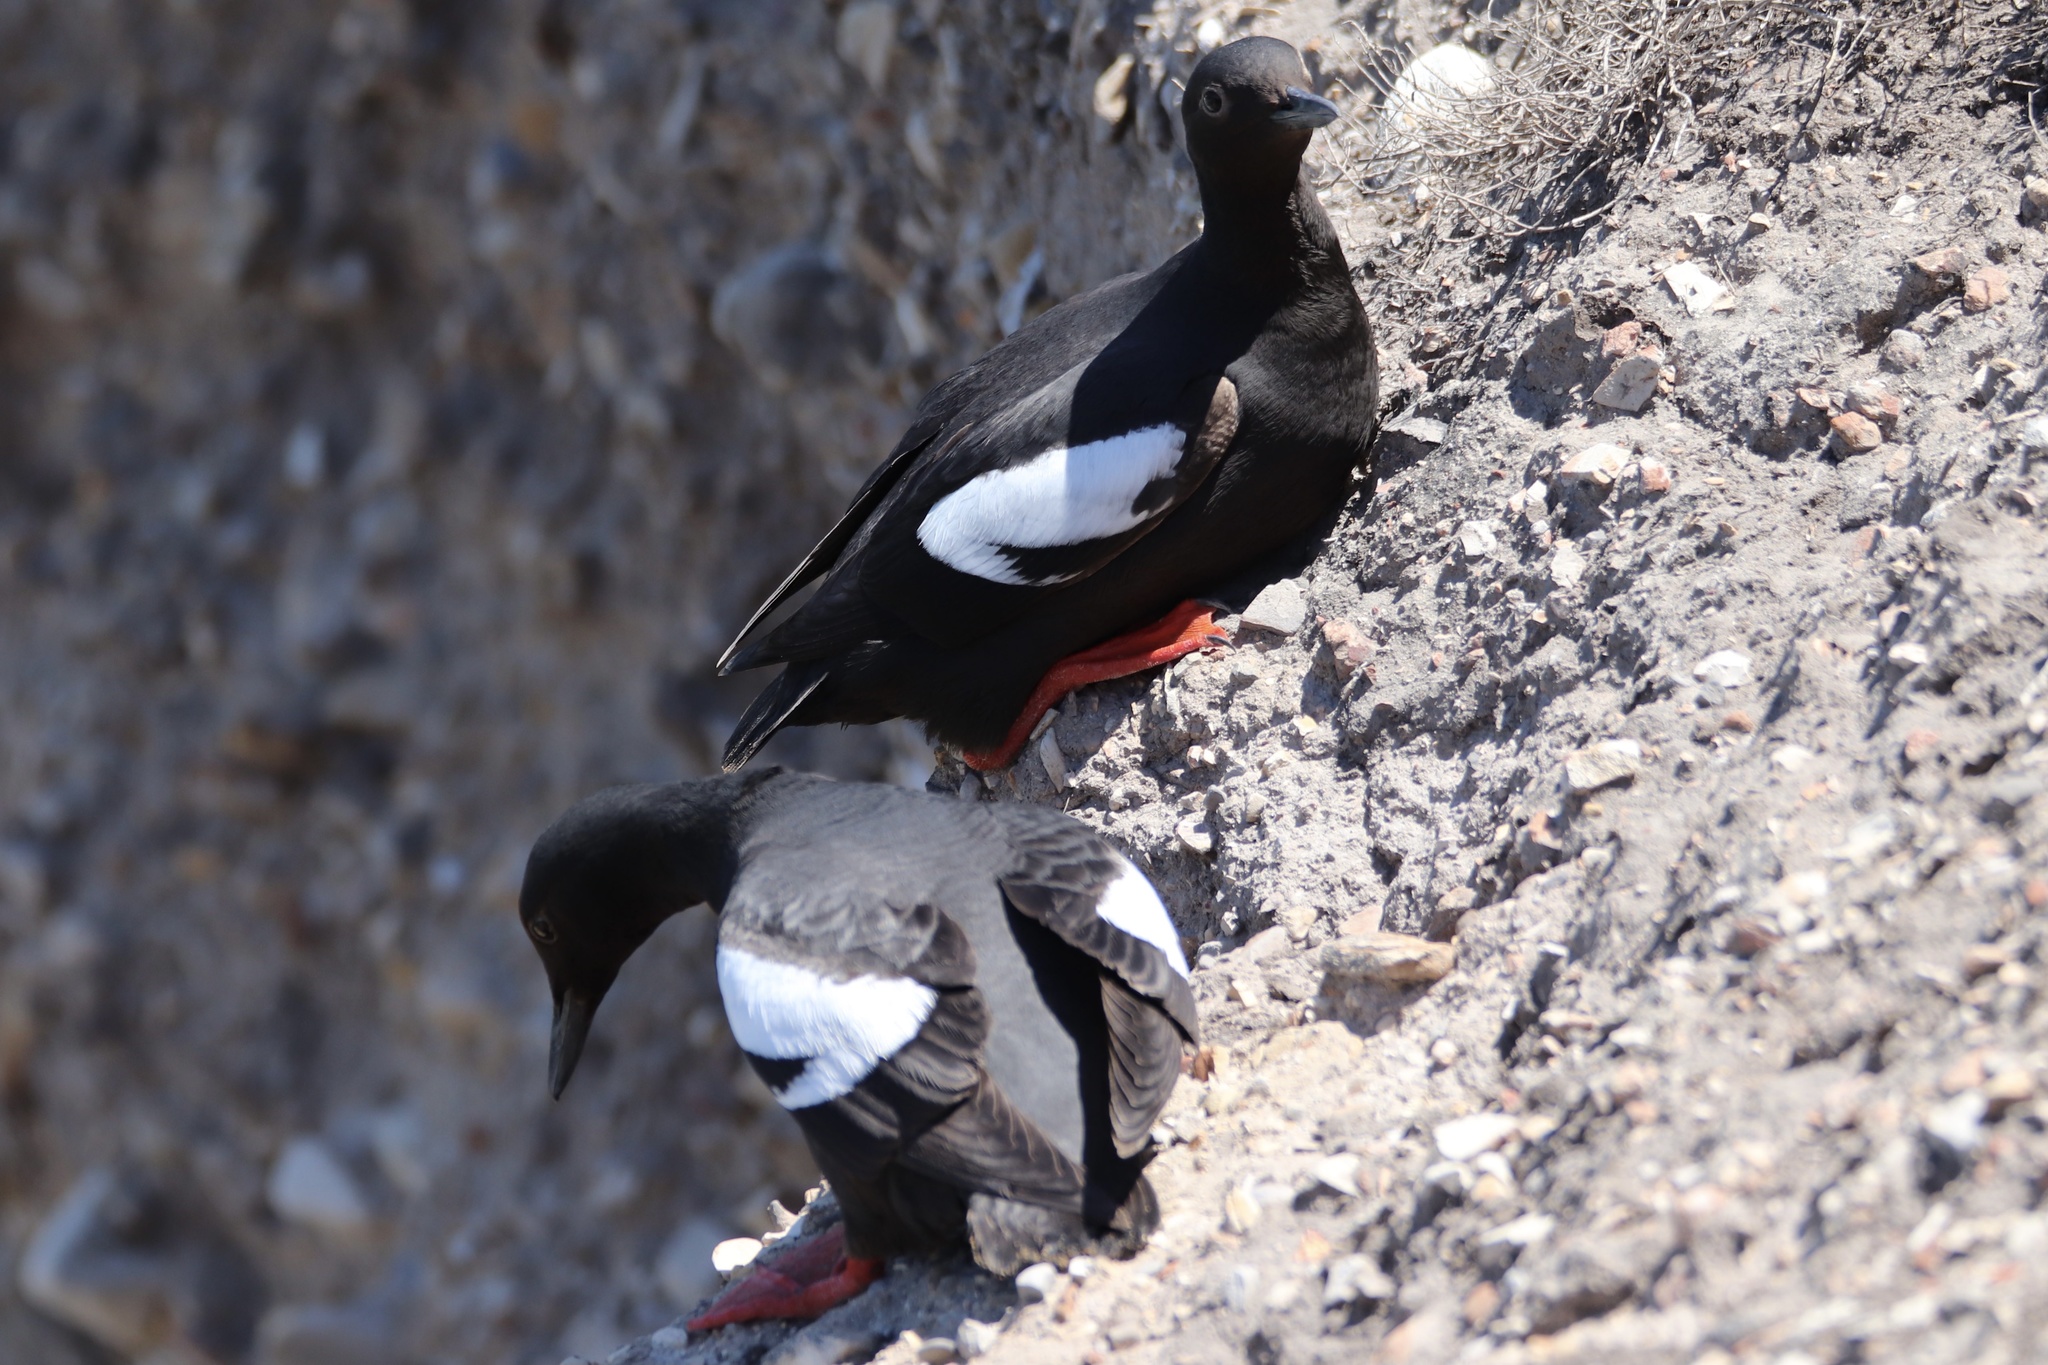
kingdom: Animalia
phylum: Chordata
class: Aves
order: Charadriiformes
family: Alcidae
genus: Cepphus
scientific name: Cepphus columba
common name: Pigeon guillemot
